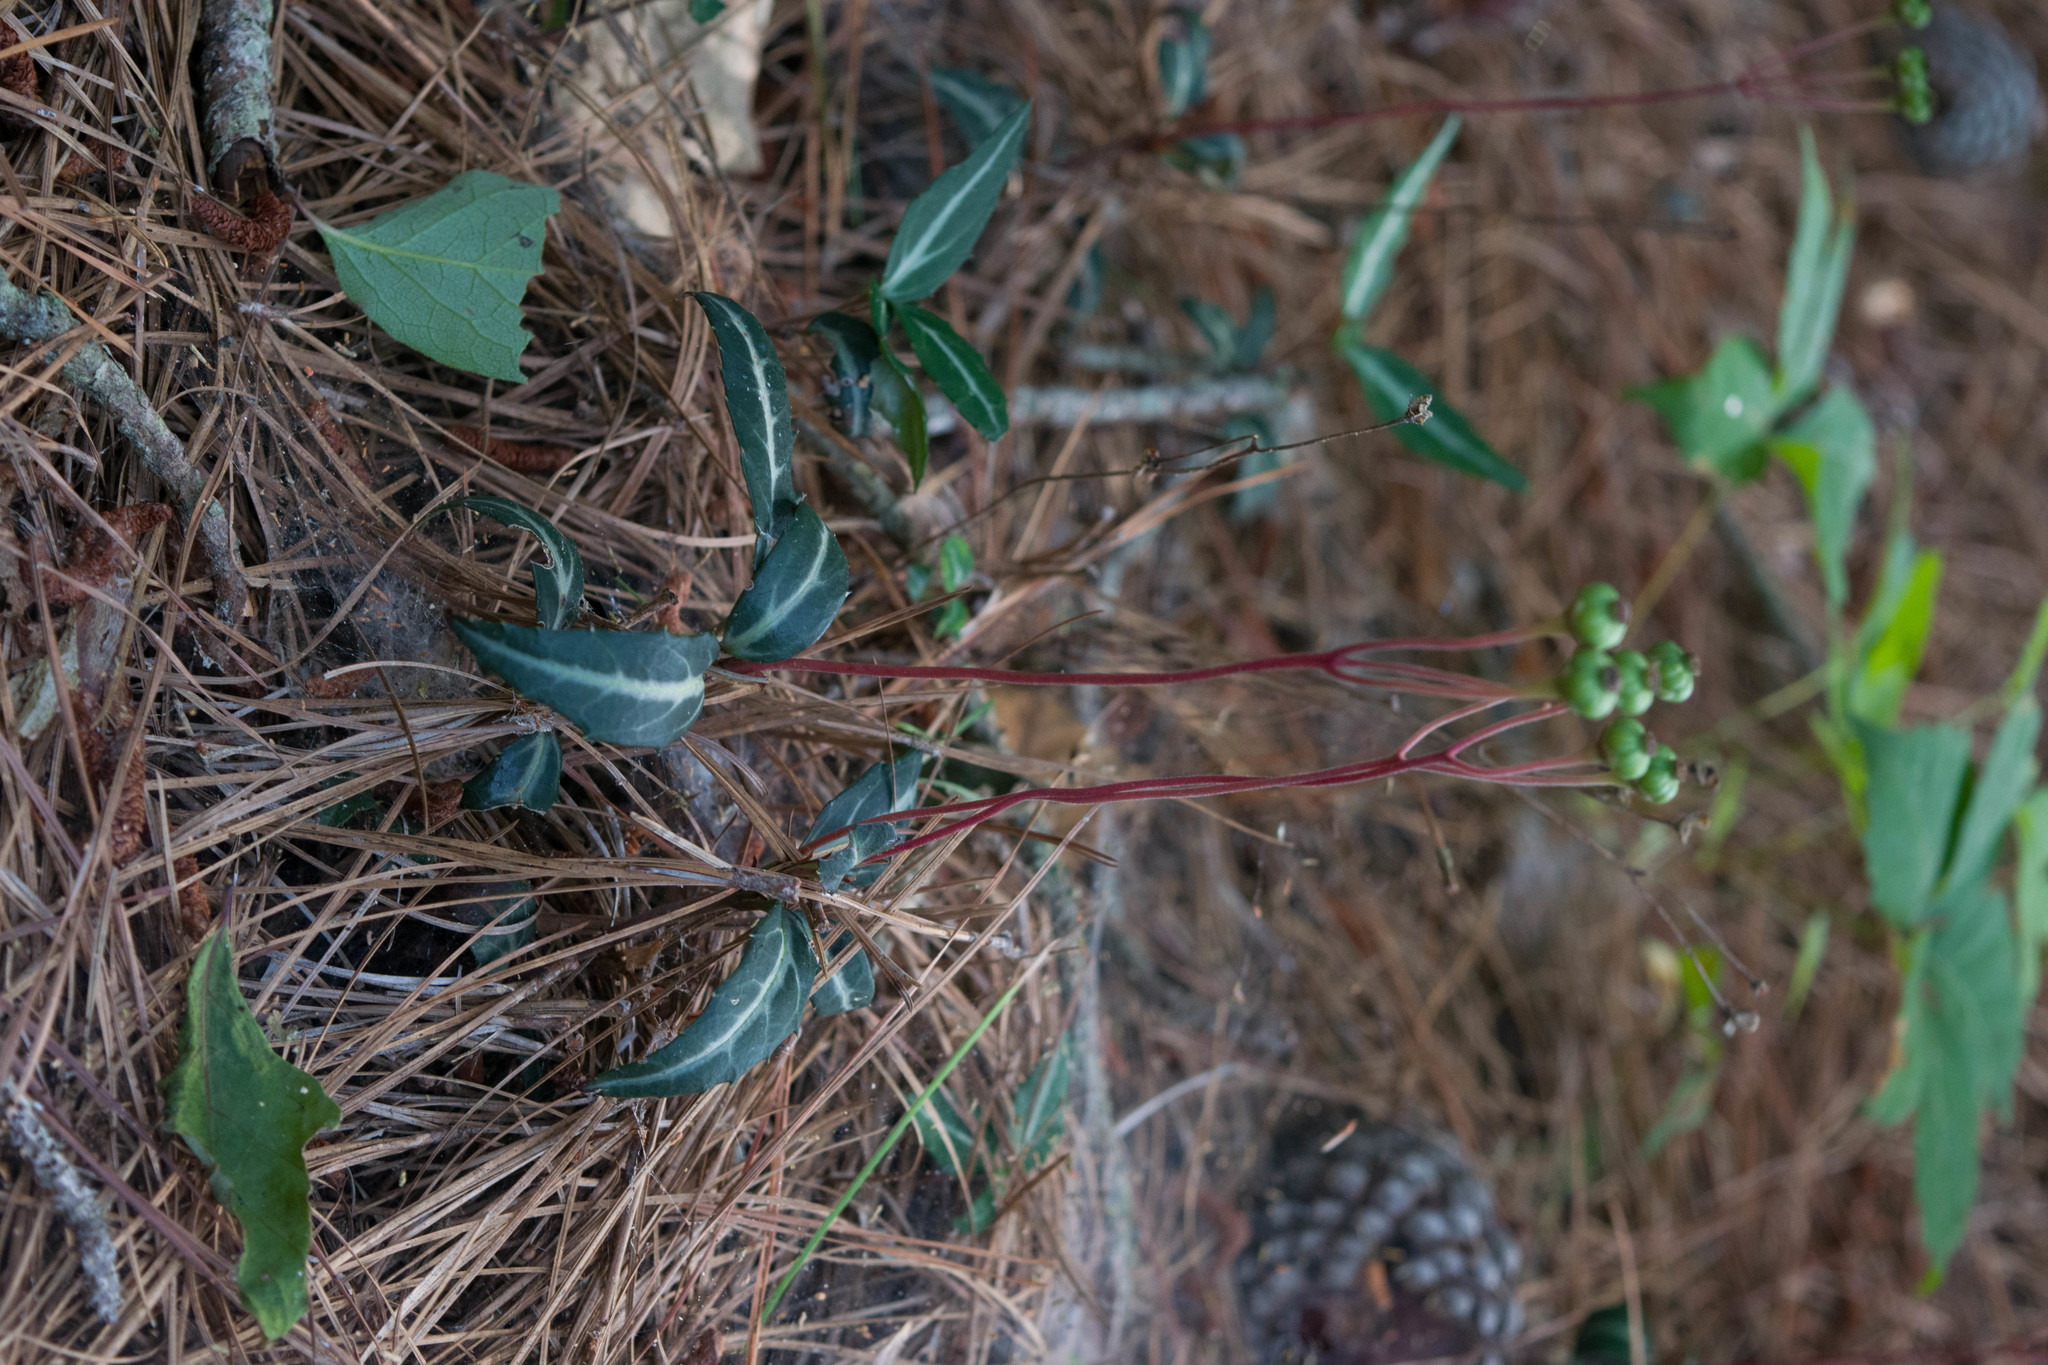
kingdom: Plantae
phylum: Tracheophyta
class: Magnoliopsida
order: Ericales
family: Ericaceae
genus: Chimaphila
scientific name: Chimaphila maculata
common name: Spotted pipsissewa
